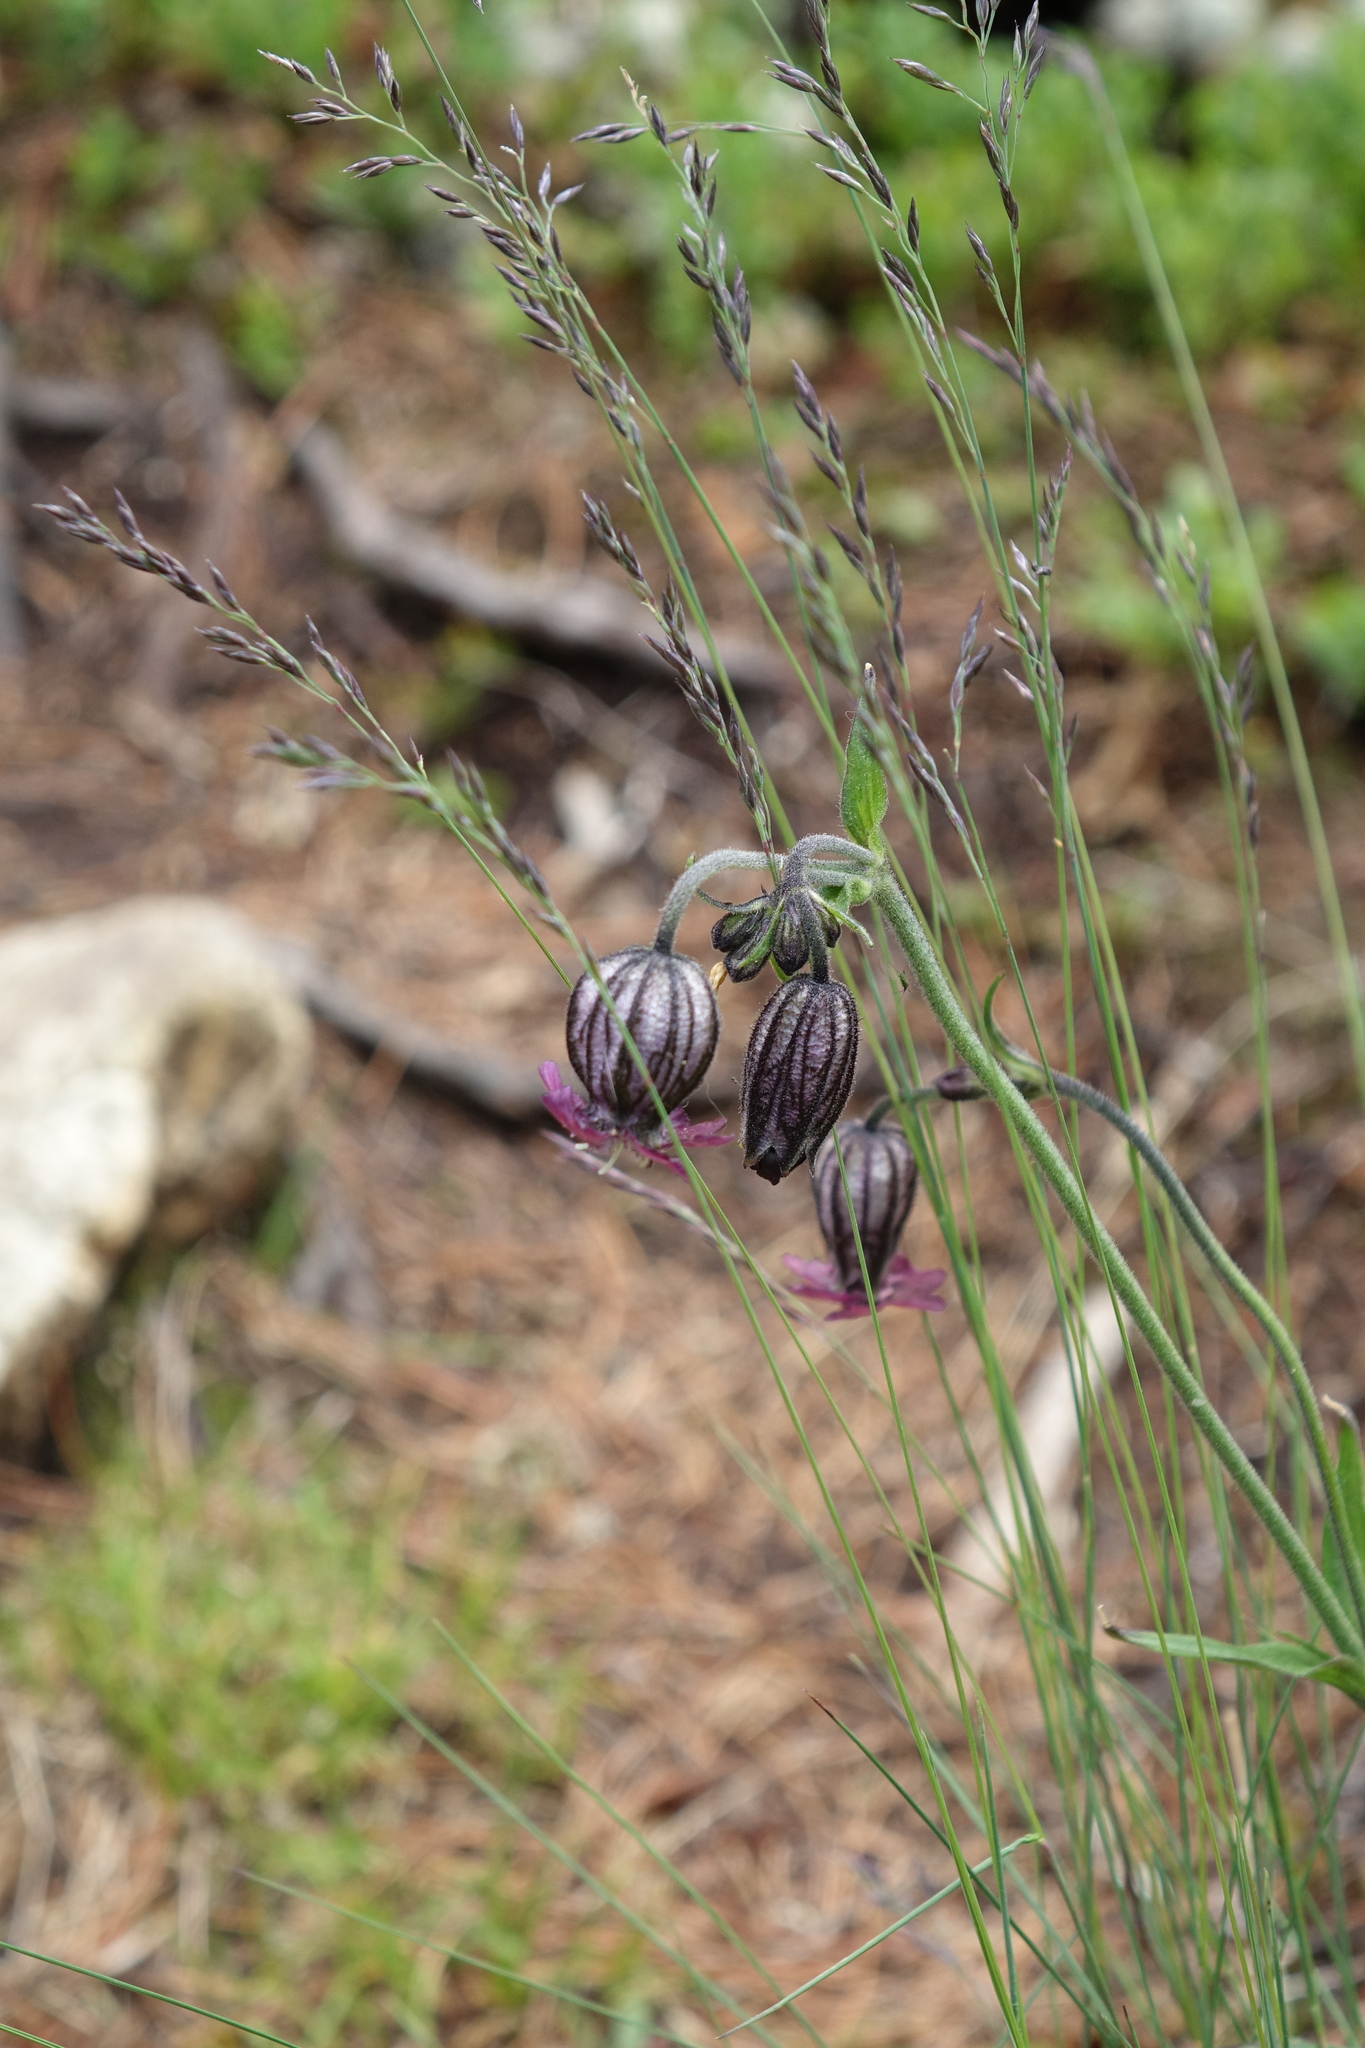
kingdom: Plantae
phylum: Tracheophyta
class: Magnoliopsida
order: Caryophyllales
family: Caryophyllaceae
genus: Silene
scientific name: Silene bungei
